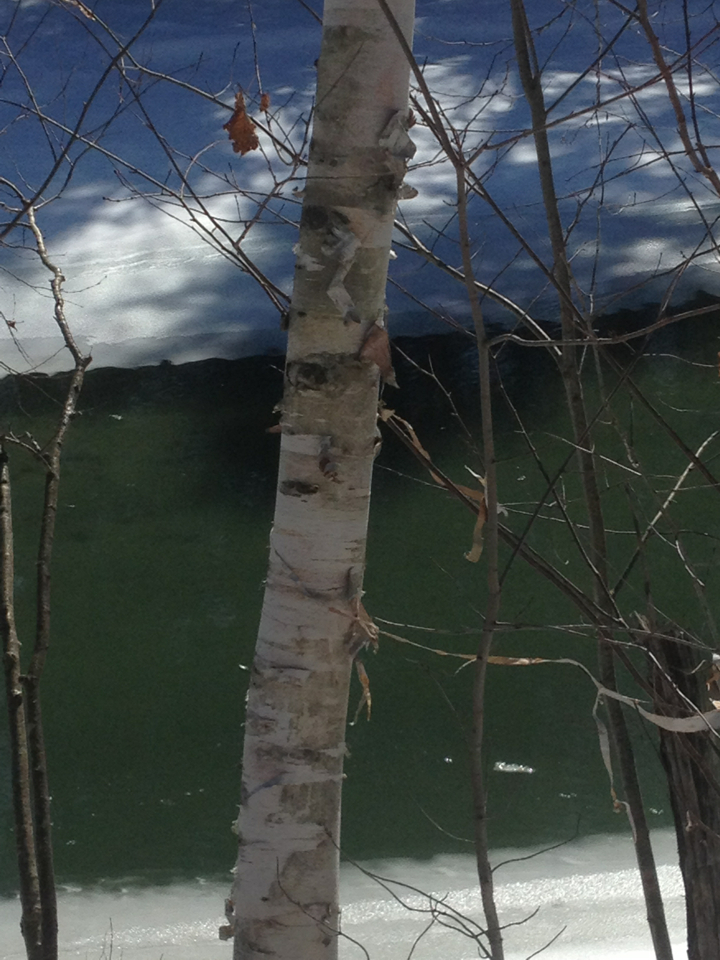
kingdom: Plantae
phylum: Tracheophyta
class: Magnoliopsida
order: Fagales
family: Betulaceae
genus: Betula
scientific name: Betula papyrifera
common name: Paper birch
